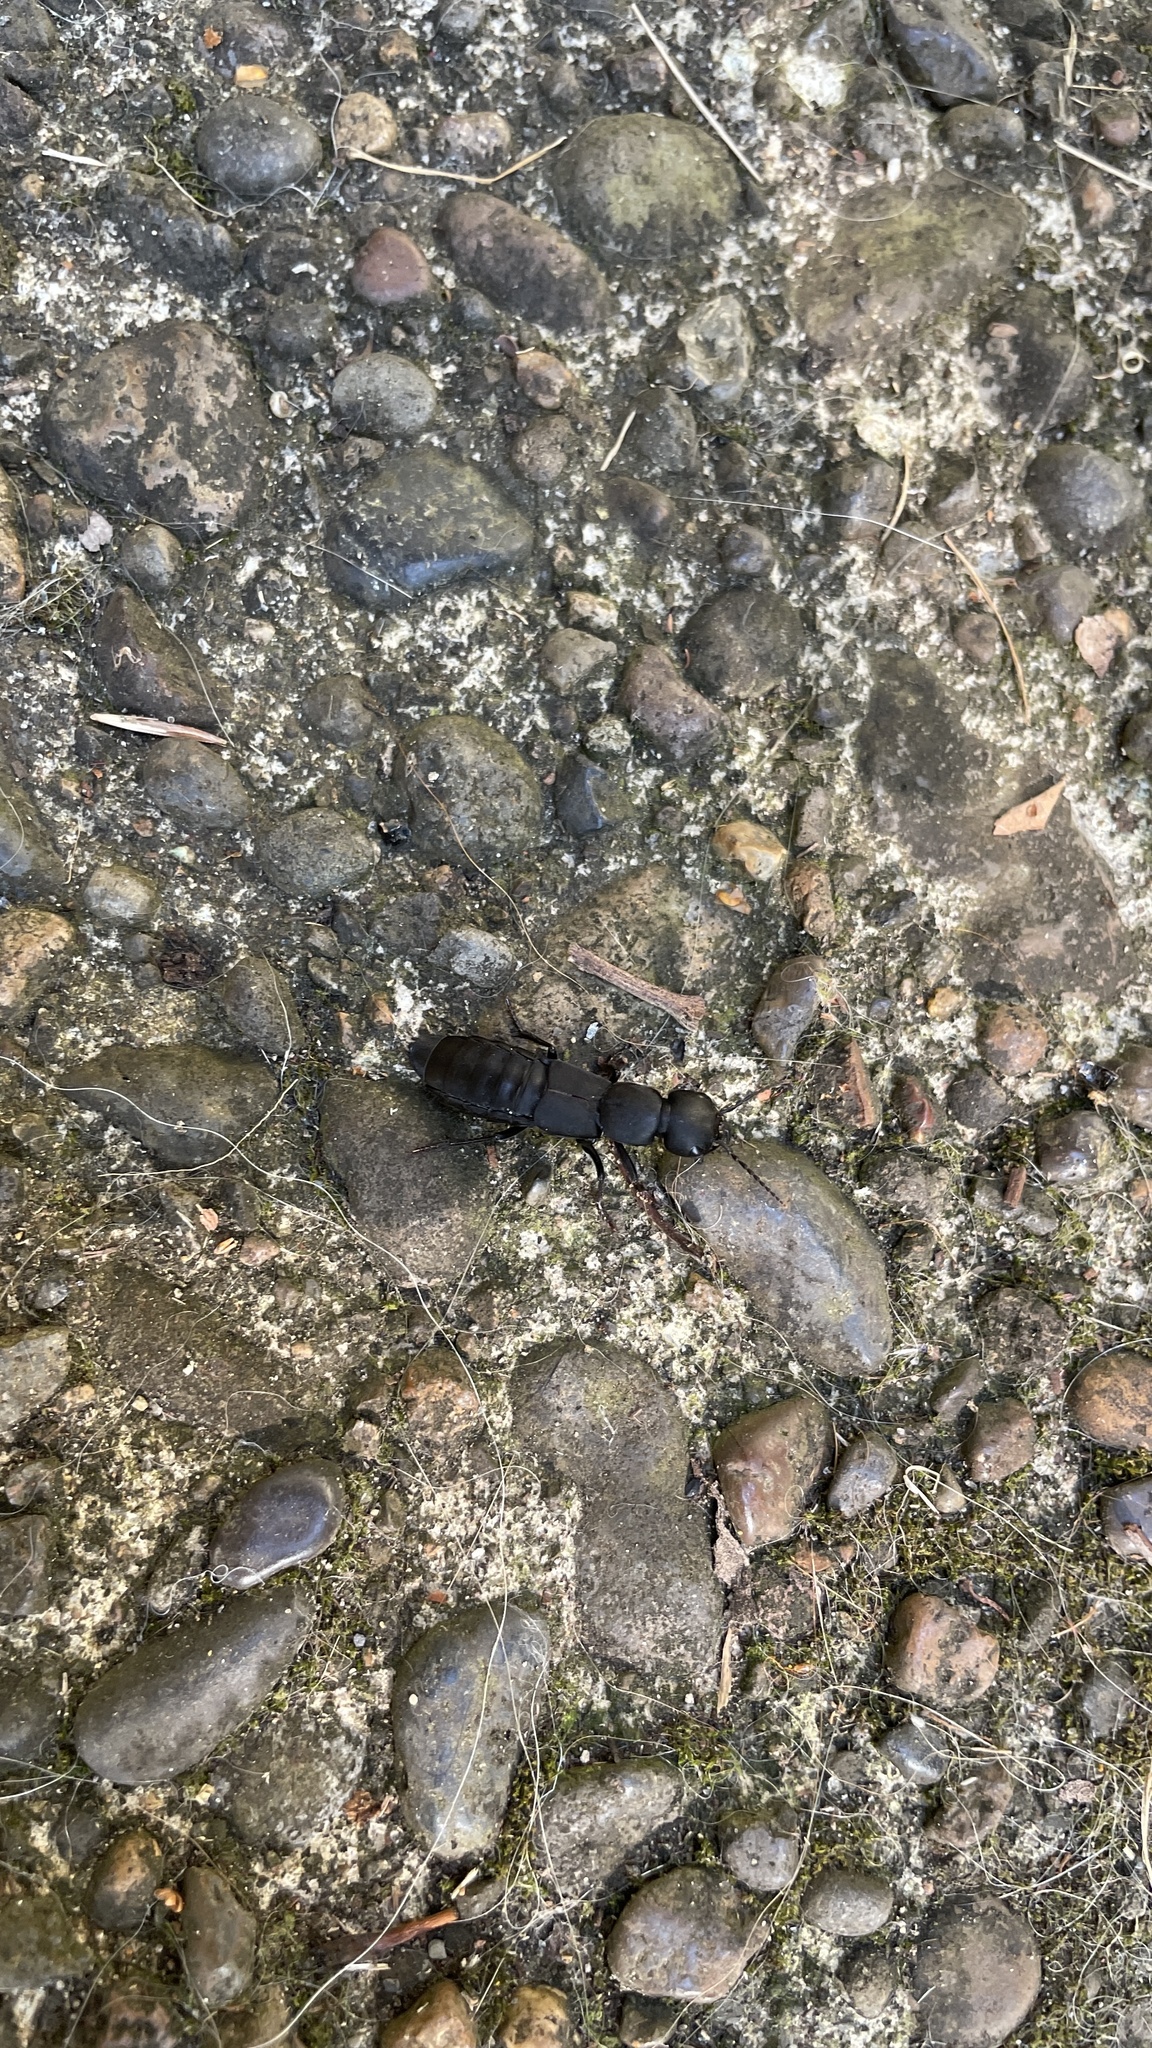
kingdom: Animalia
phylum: Arthropoda
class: Insecta
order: Coleoptera
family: Staphylinidae
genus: Ocypus
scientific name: Ocypus olens
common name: Devil's coach-horse
